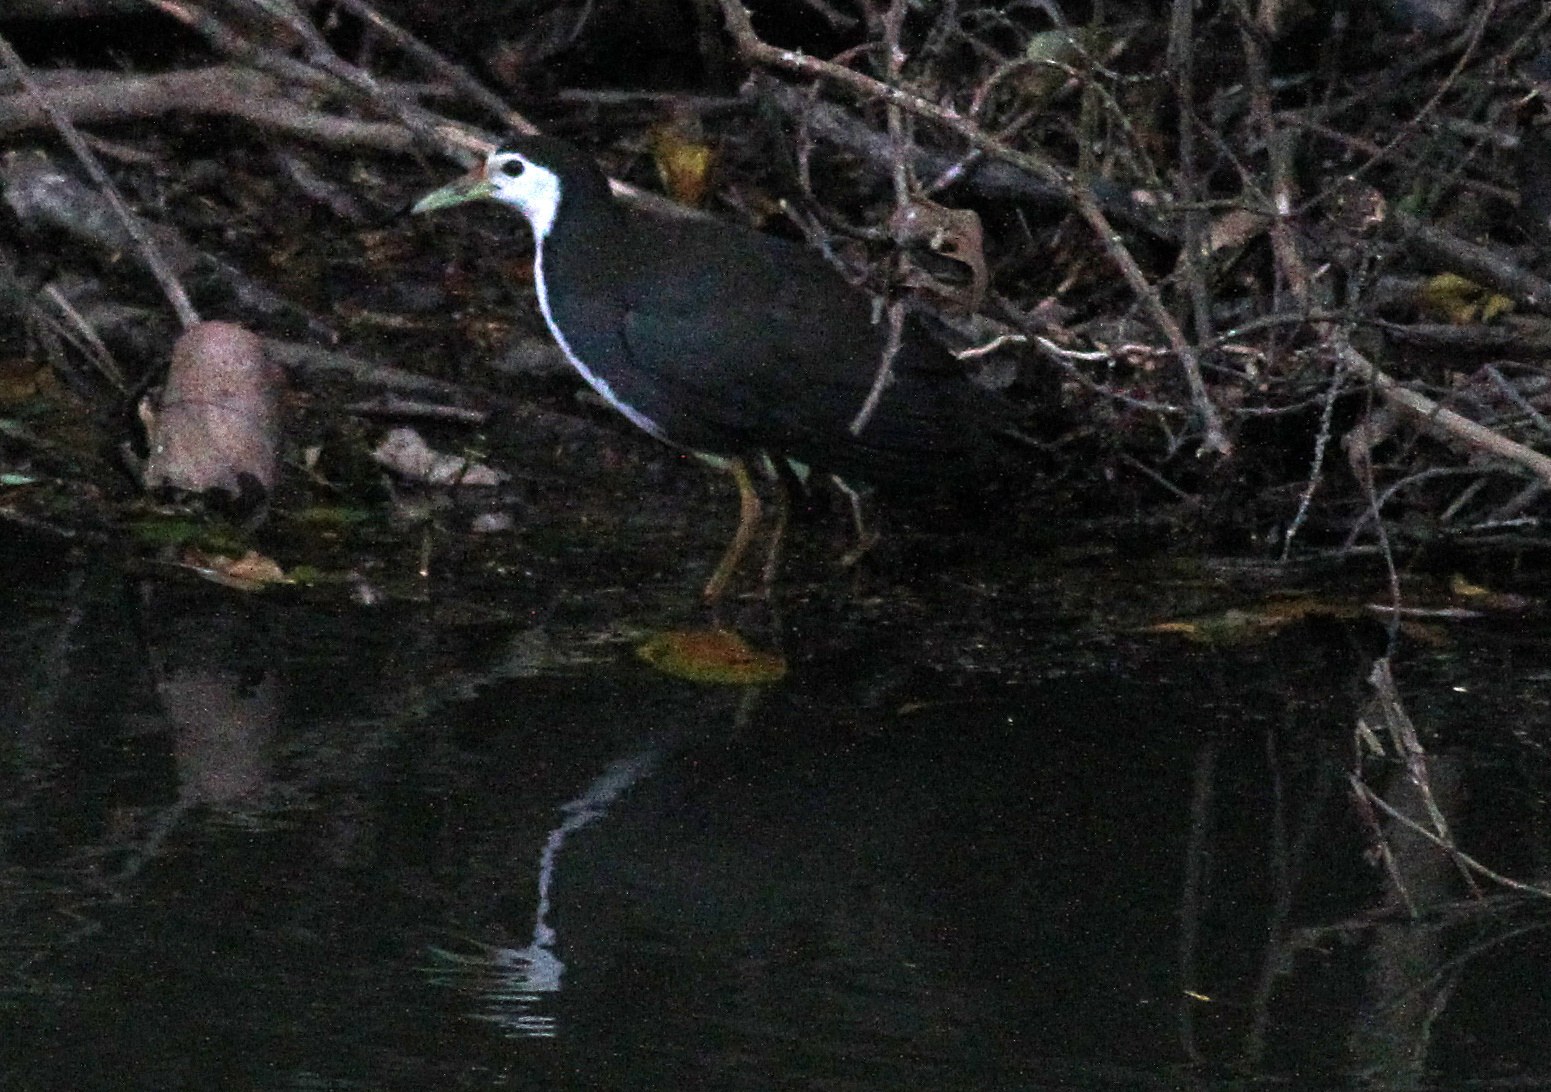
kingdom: Animalia
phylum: Chordata
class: Aves
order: Gruiformes
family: Rallidae
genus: Amaurornis
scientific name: Amaurornis phoenicurus
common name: White-breasted waterhen
